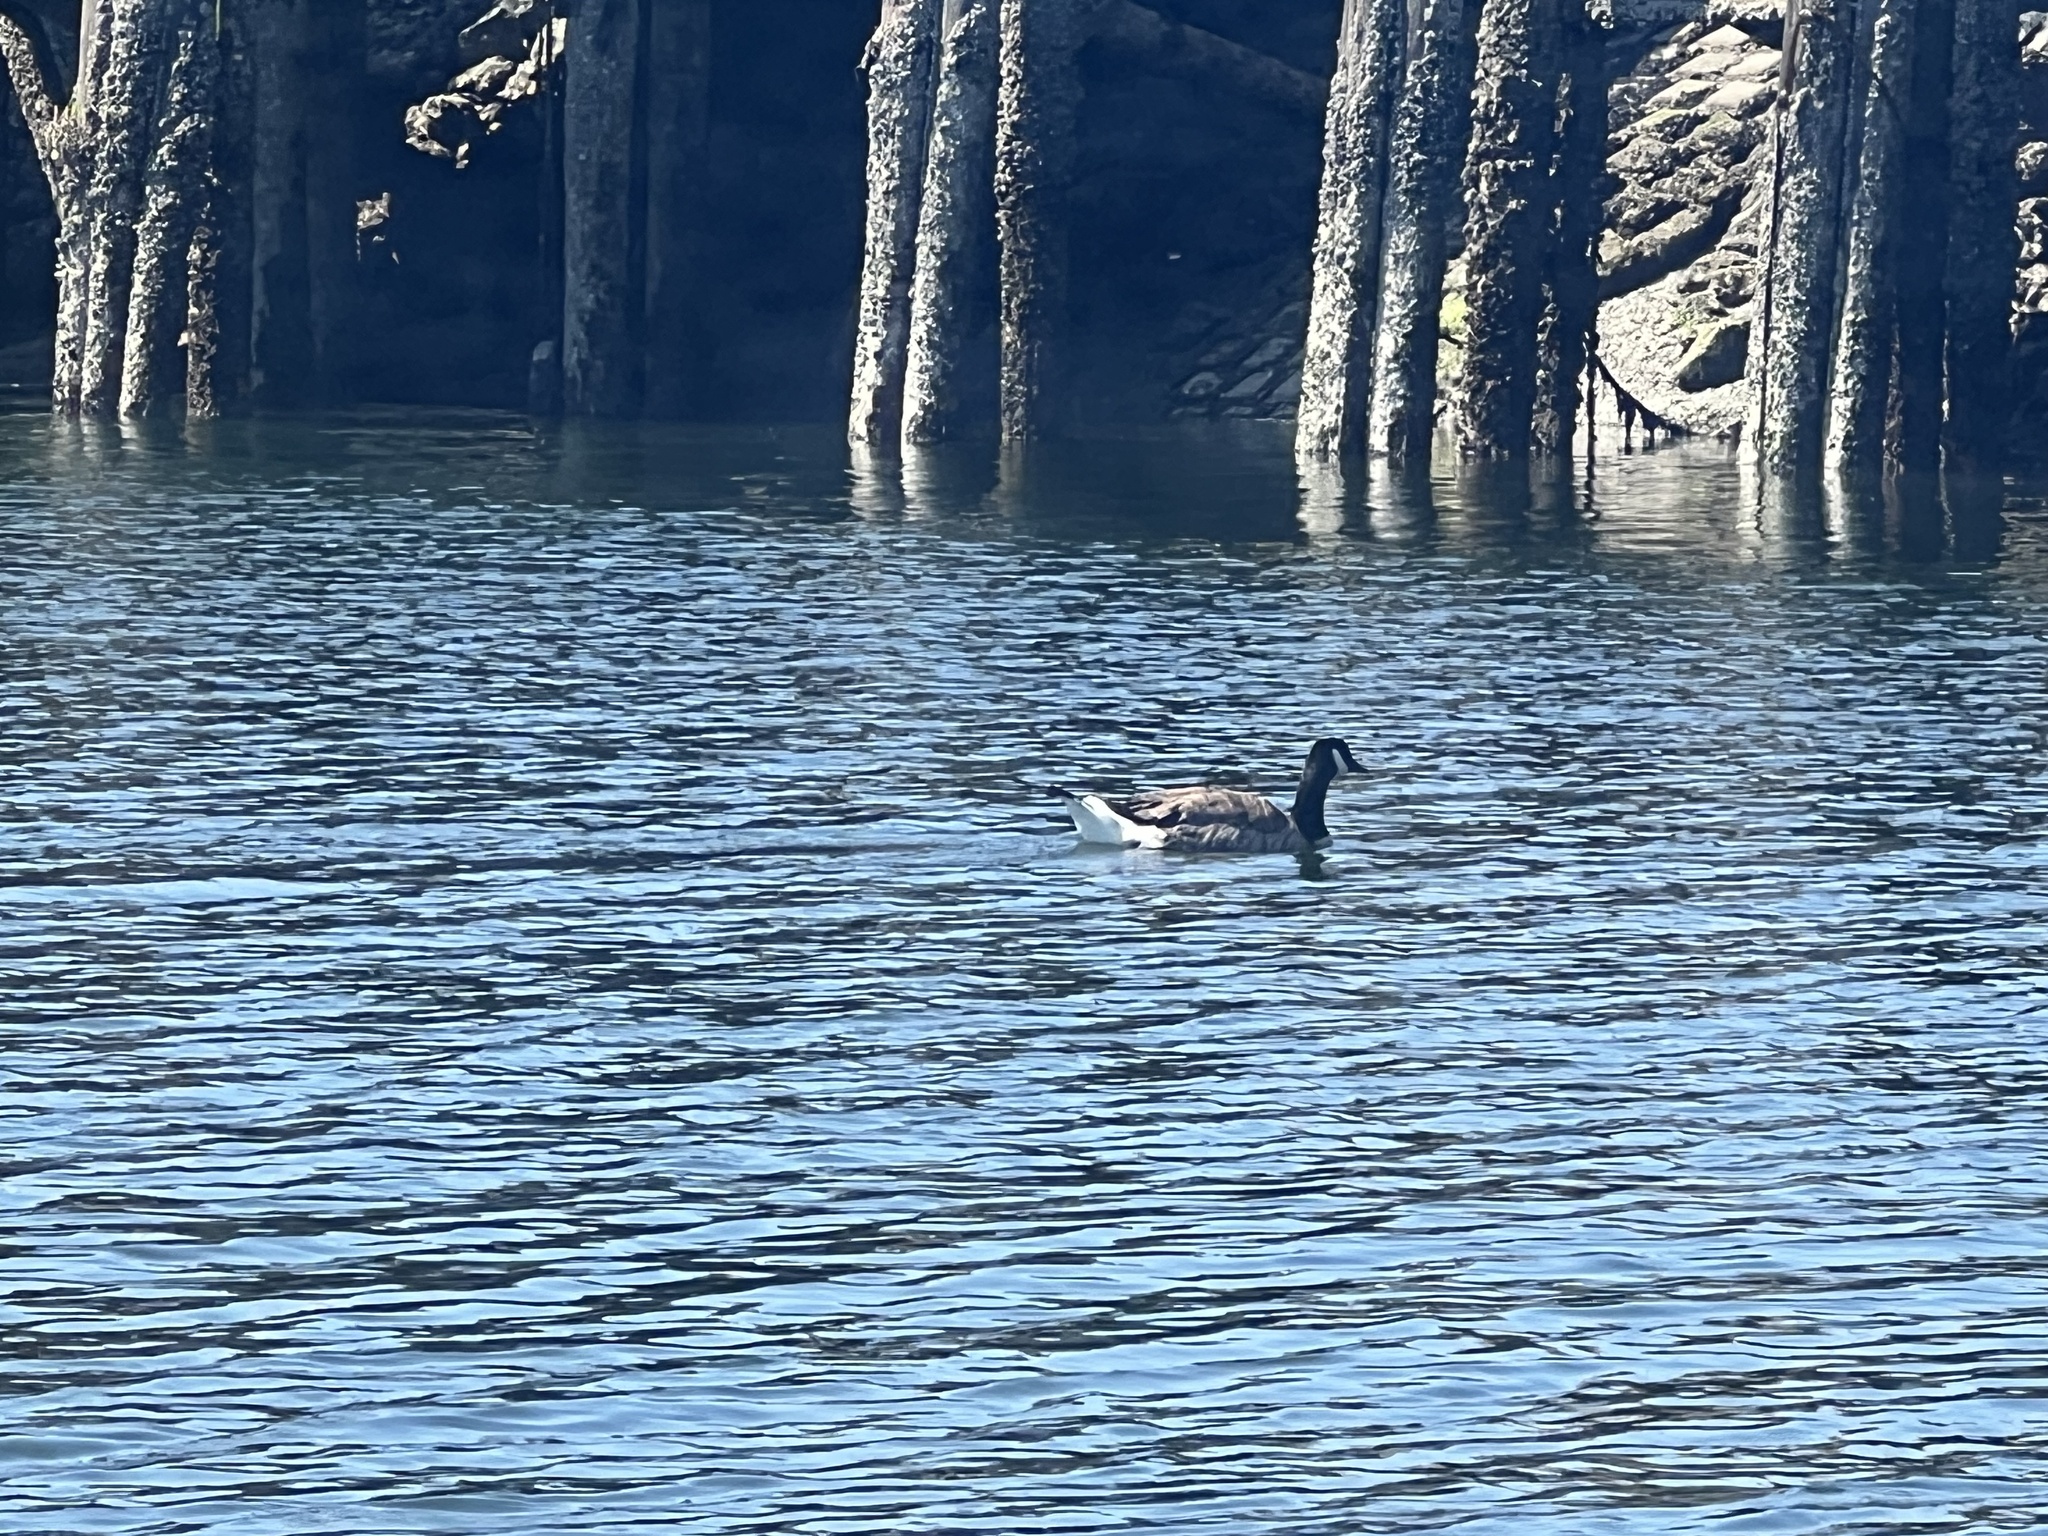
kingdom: Animalia
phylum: Chordata
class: Aves
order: Anseriformes
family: Anatidae
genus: Branta
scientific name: Branta canadensis
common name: Canada goose
